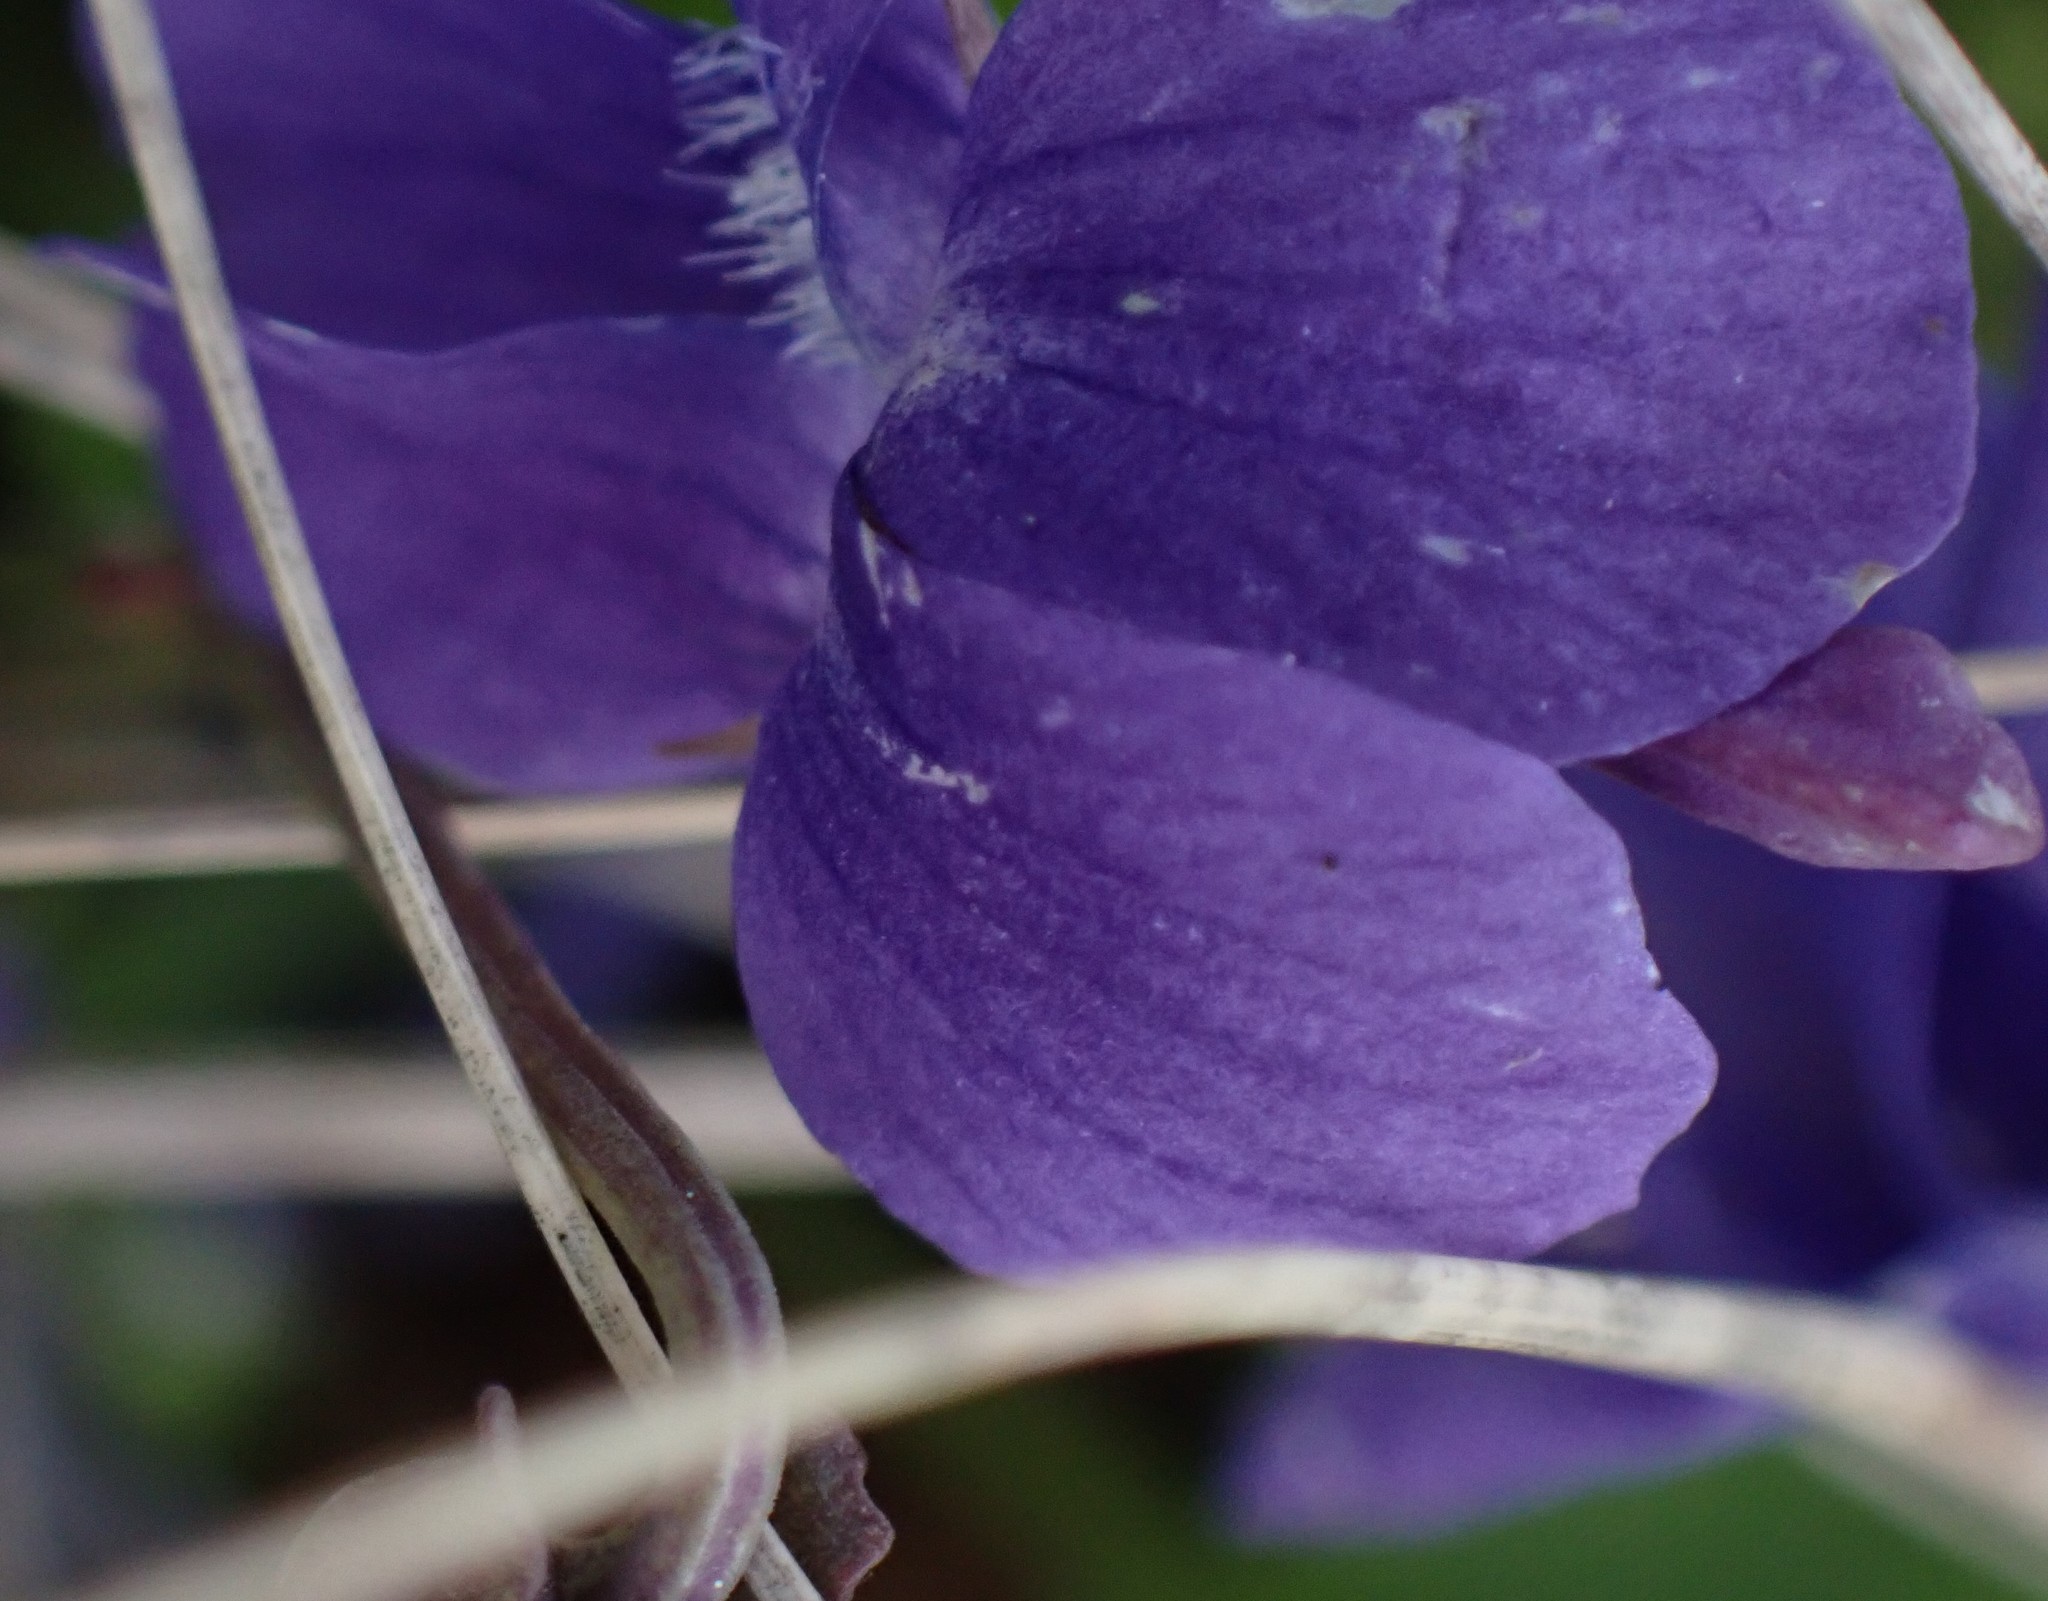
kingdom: Plantae
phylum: Tracheophyta
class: Magnoliopsida
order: Malpighiales
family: Violaceae
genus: Viola
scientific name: Viola adunca
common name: Sand violet
